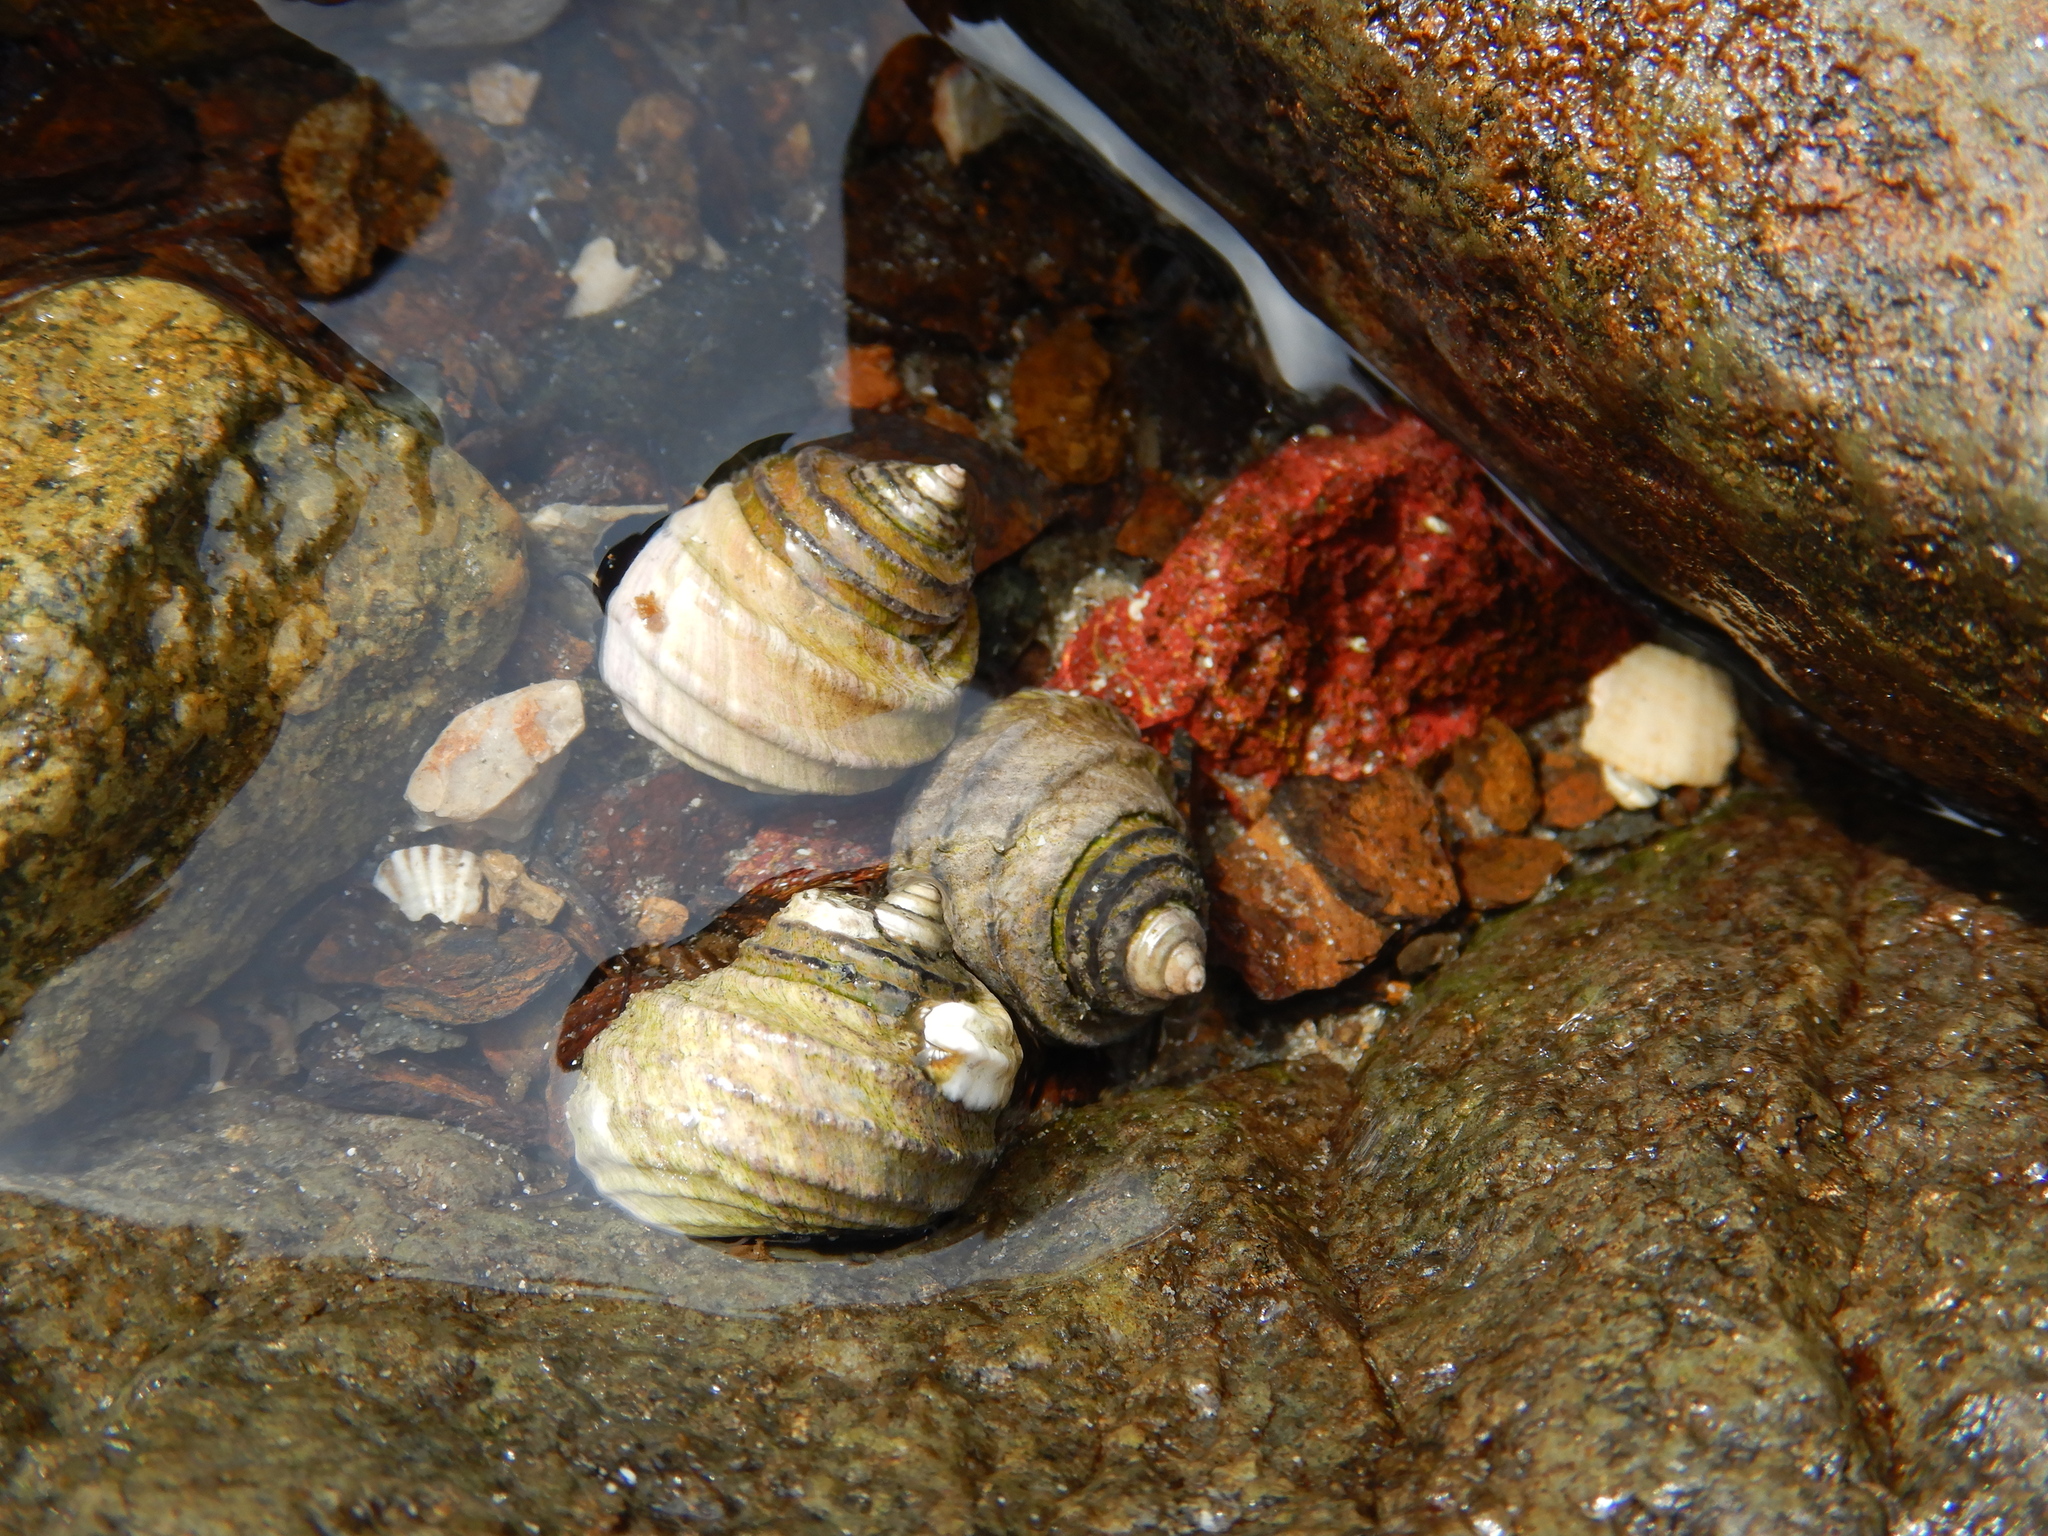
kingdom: Animalia
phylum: Mollusca
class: Gastropoda
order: Trochida
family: Trochidae
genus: Austrocochlea
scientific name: Austrocochlea constricta
